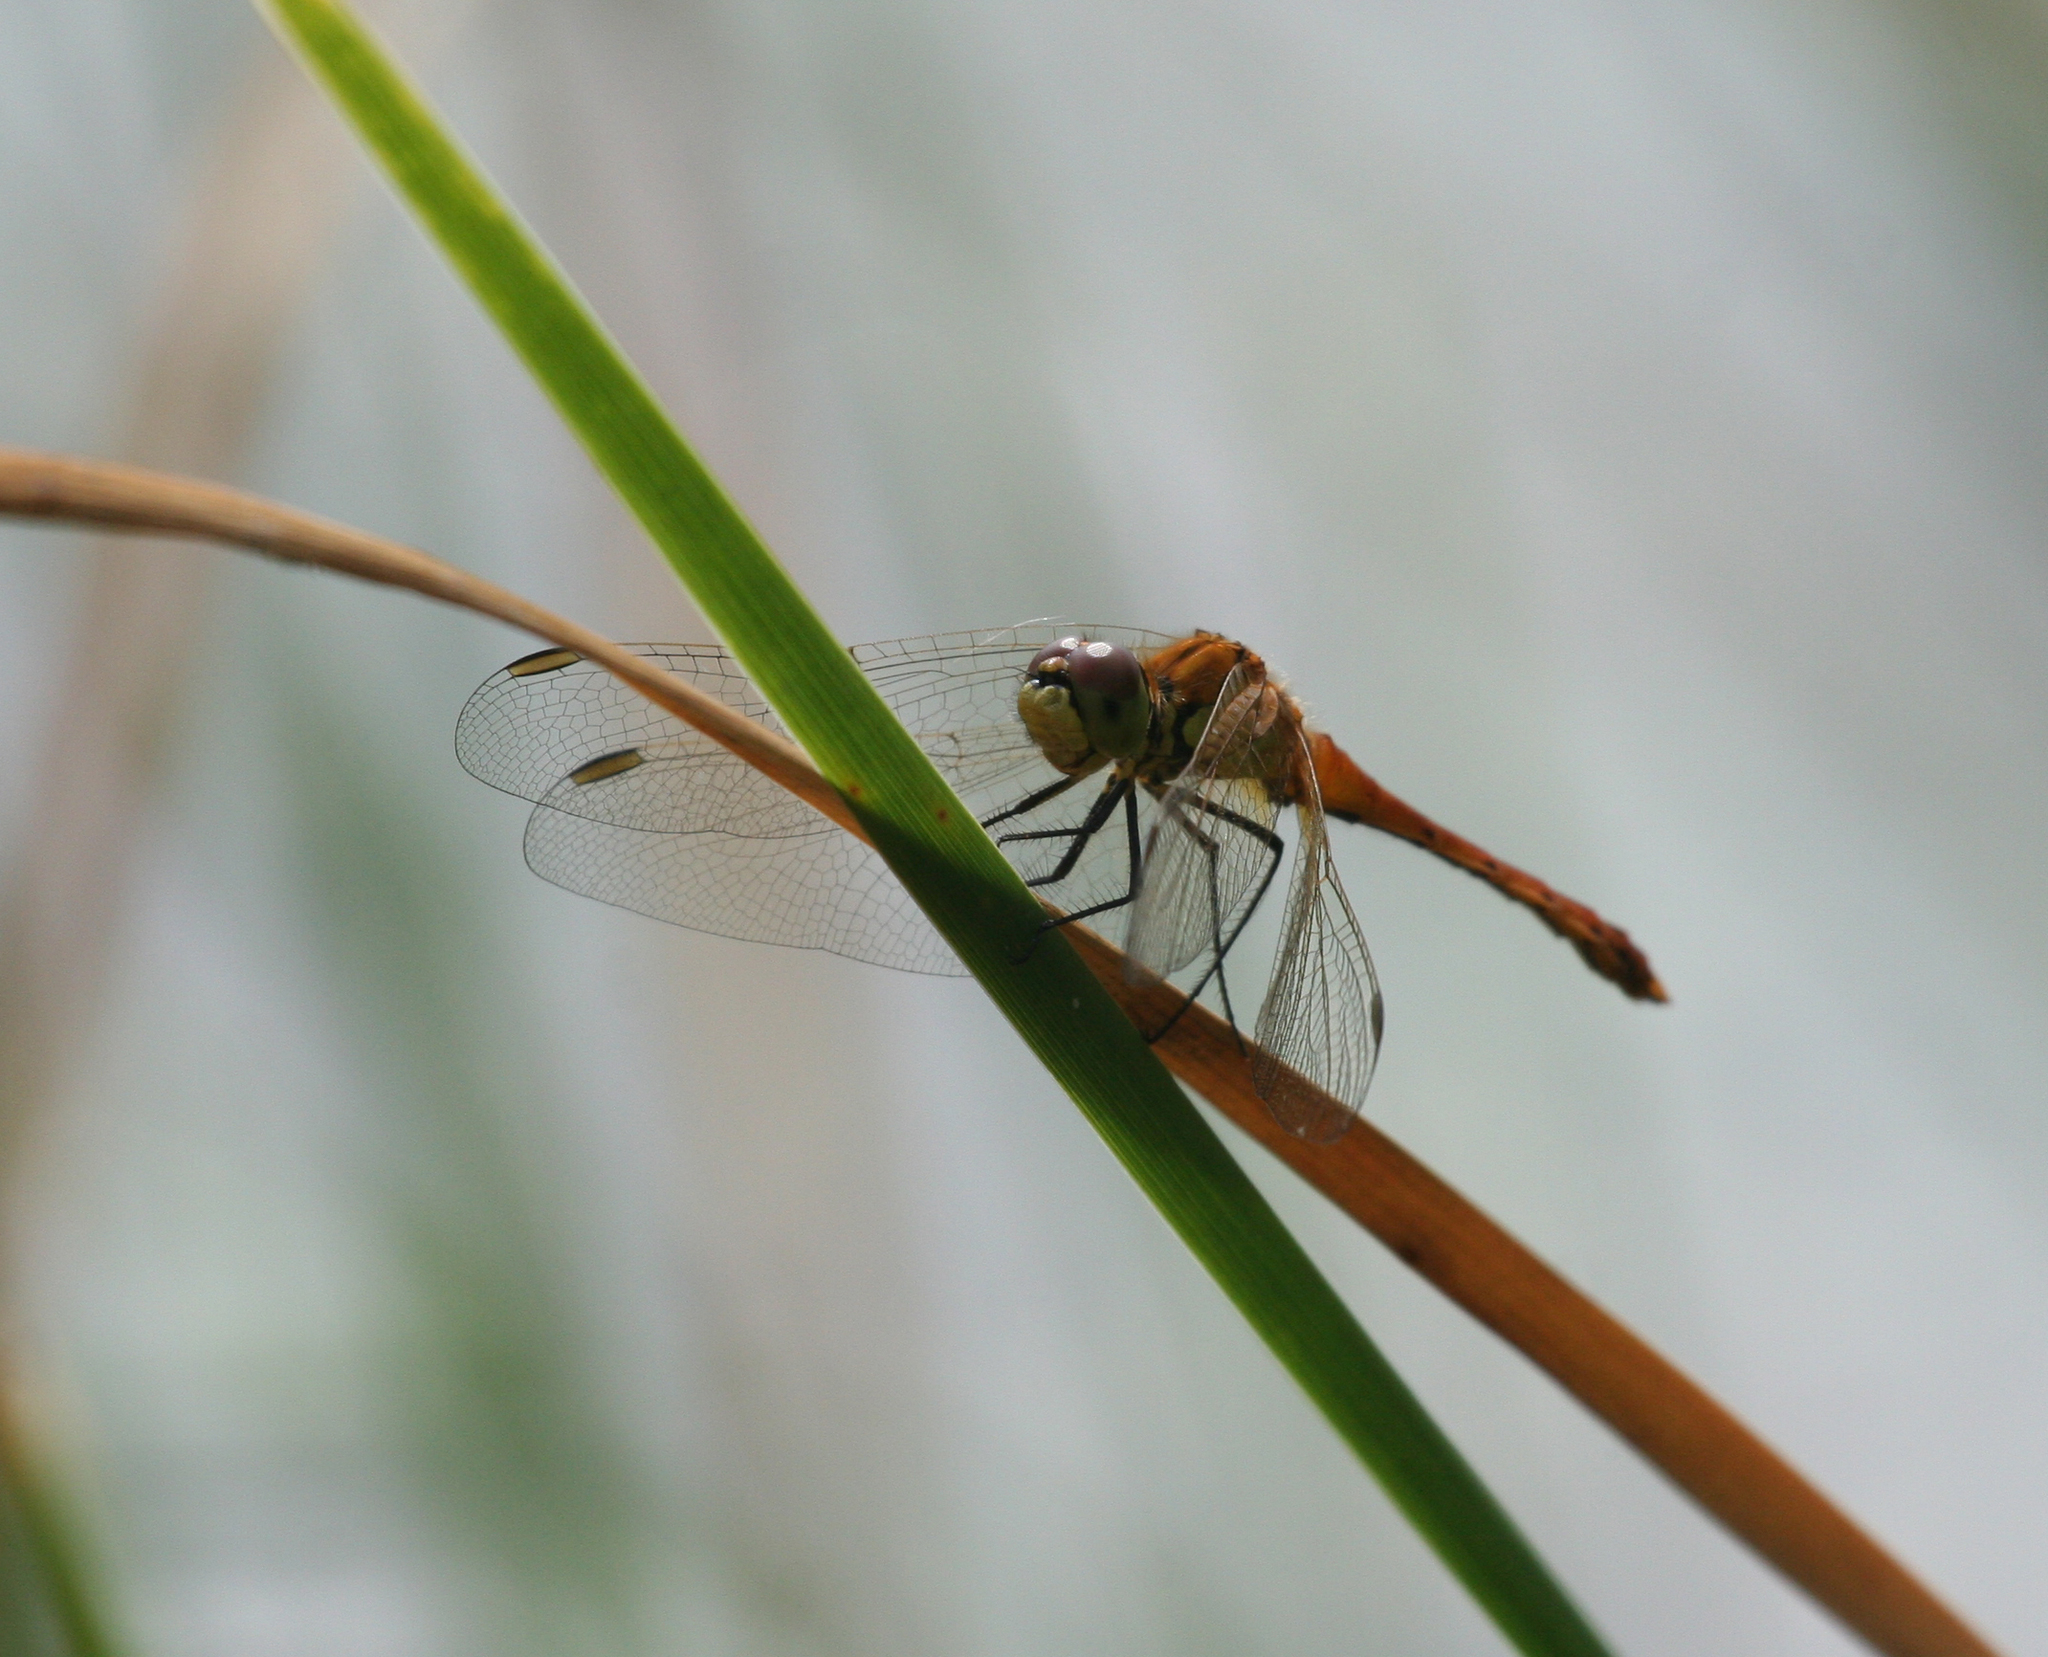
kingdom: Animalia
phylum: Arthropoda
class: Insecta
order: Odonata
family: Libellulidae
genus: Sympetrum
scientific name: Sympetrum depressiusculum
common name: Spotted darter
